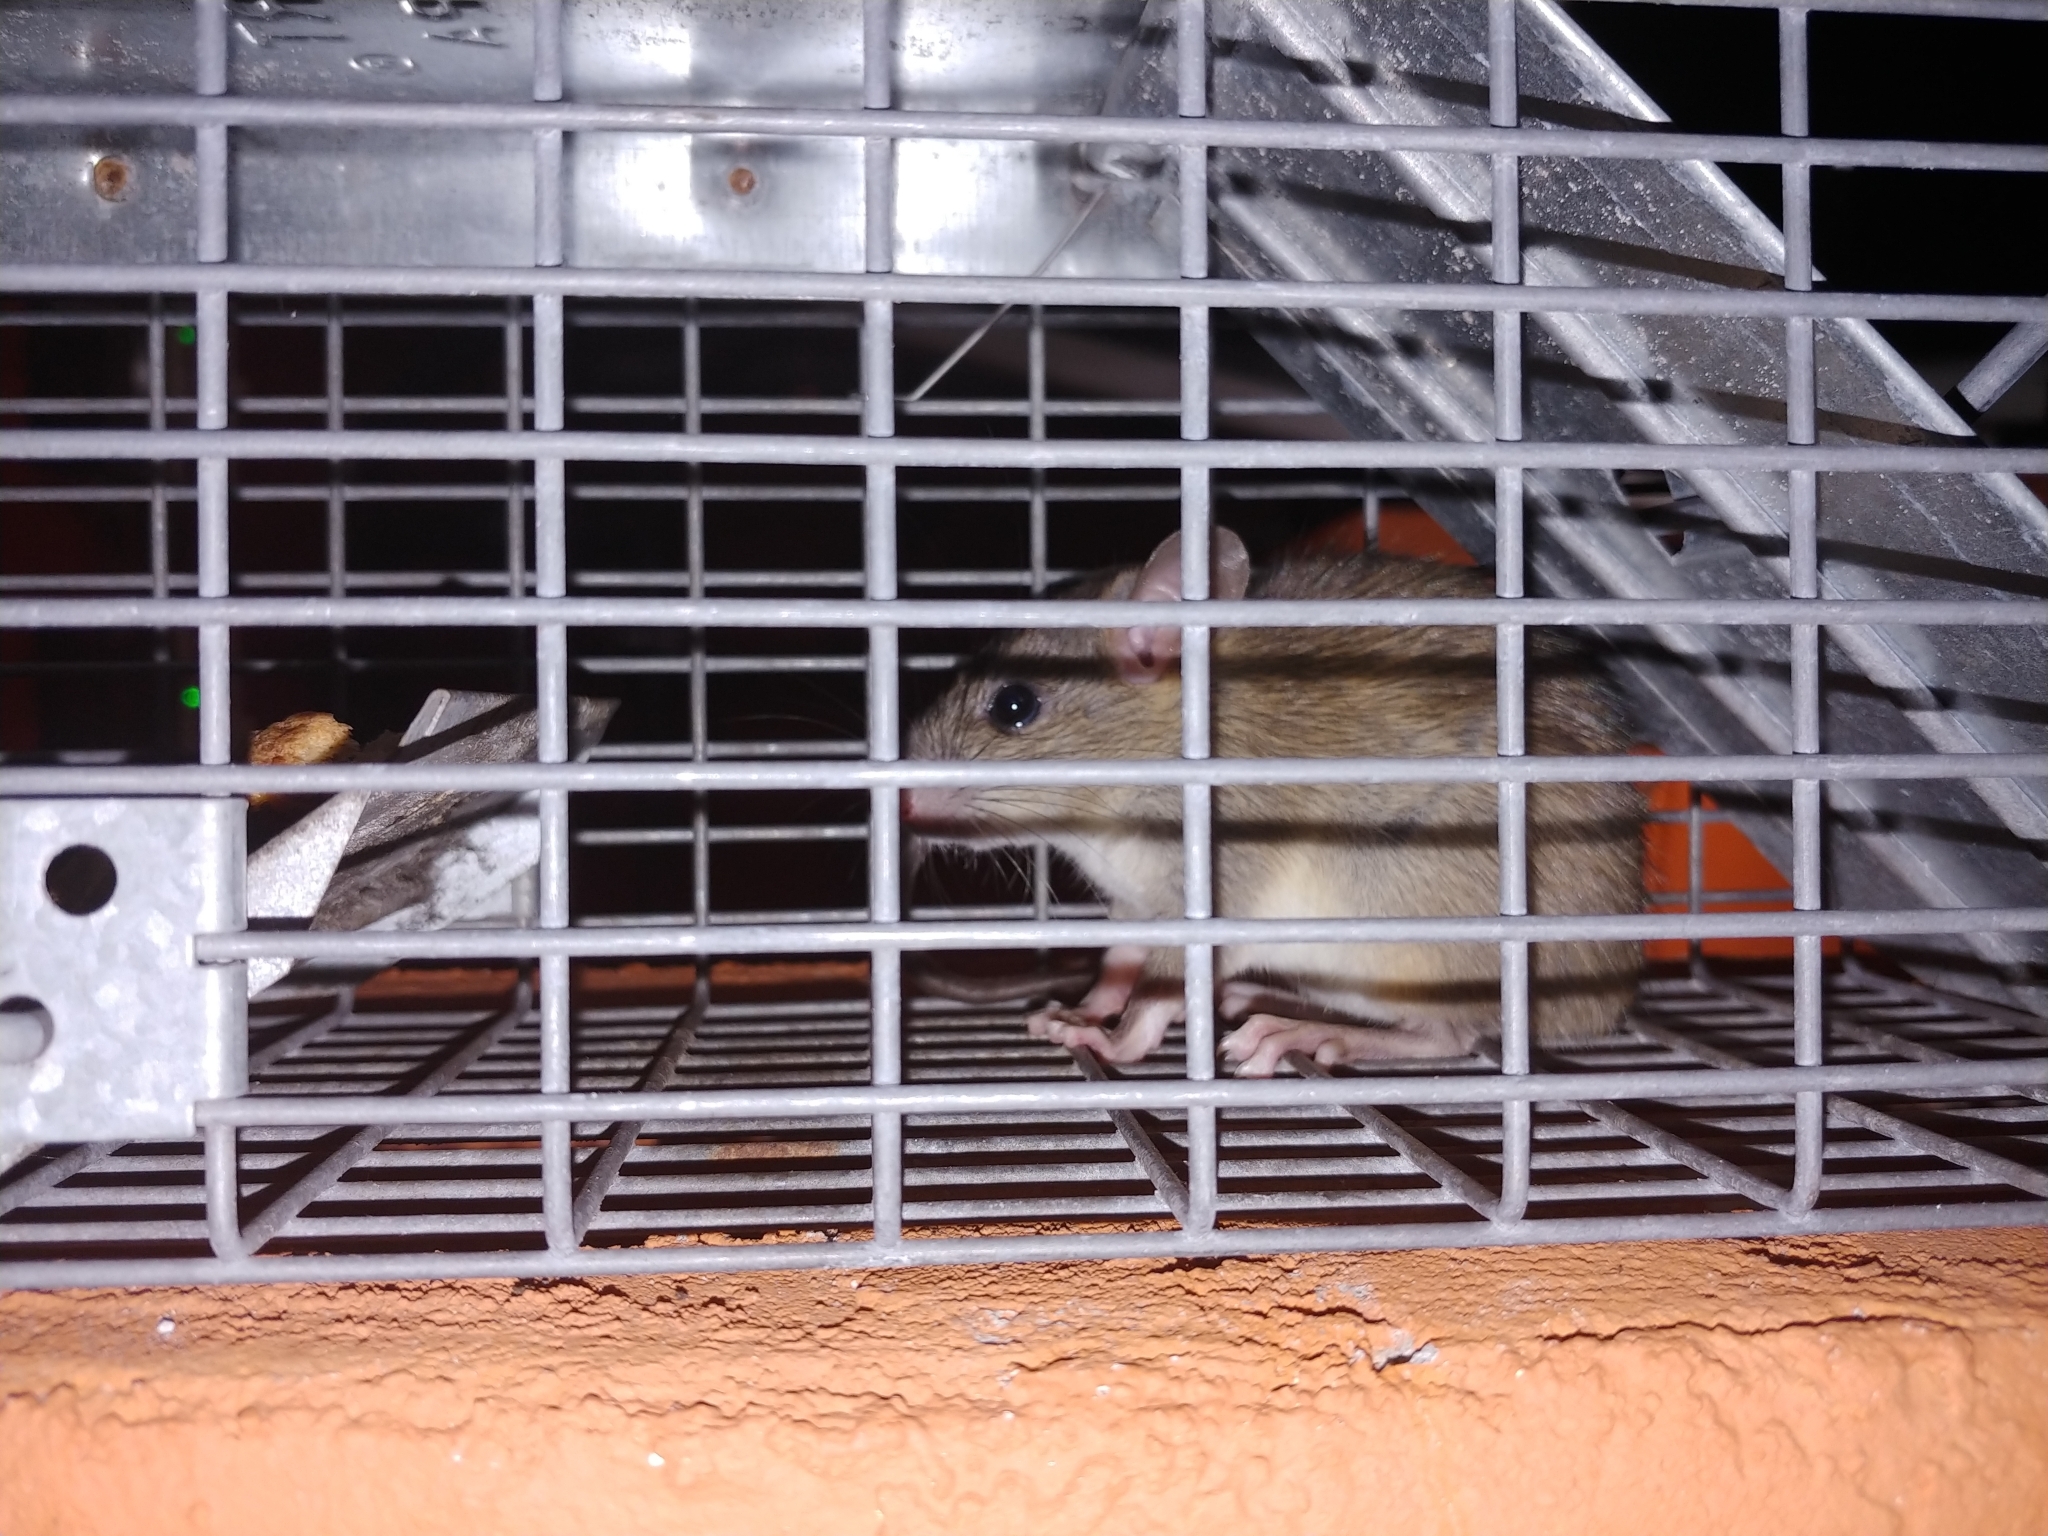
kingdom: Animalia
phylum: Chordata
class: Mammalia
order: Rodentia
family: Muridae
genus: Rattus
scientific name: Rattus rattus
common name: Black rat
